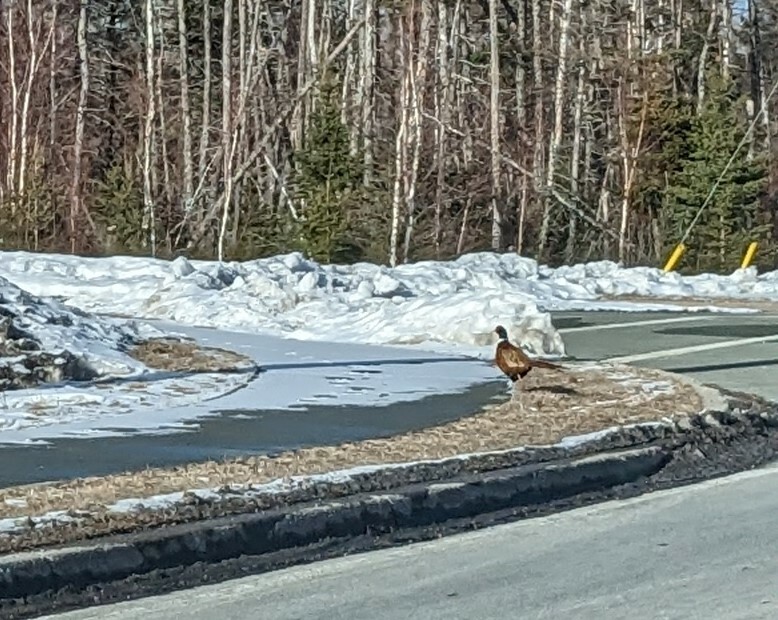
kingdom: Animalia
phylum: Chordata
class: Aves
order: Galliformes
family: Phasianidae
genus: Phasianus
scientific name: Phasianus colchicus
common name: Common pheasant
